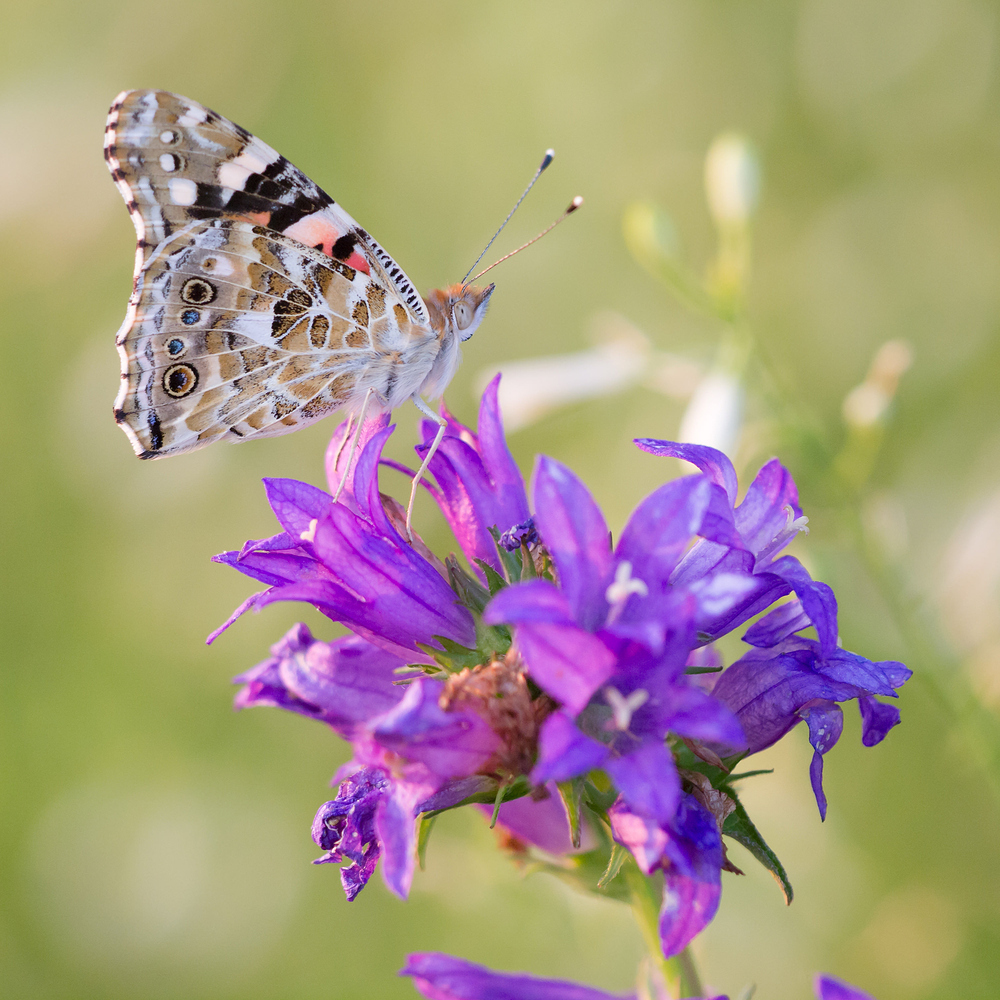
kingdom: Animalia
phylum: Arthropoda
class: Insecta
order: Lepidoptera
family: Nymphalidae
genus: Vanessa
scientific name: Vanessa cardui
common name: Painted lady
